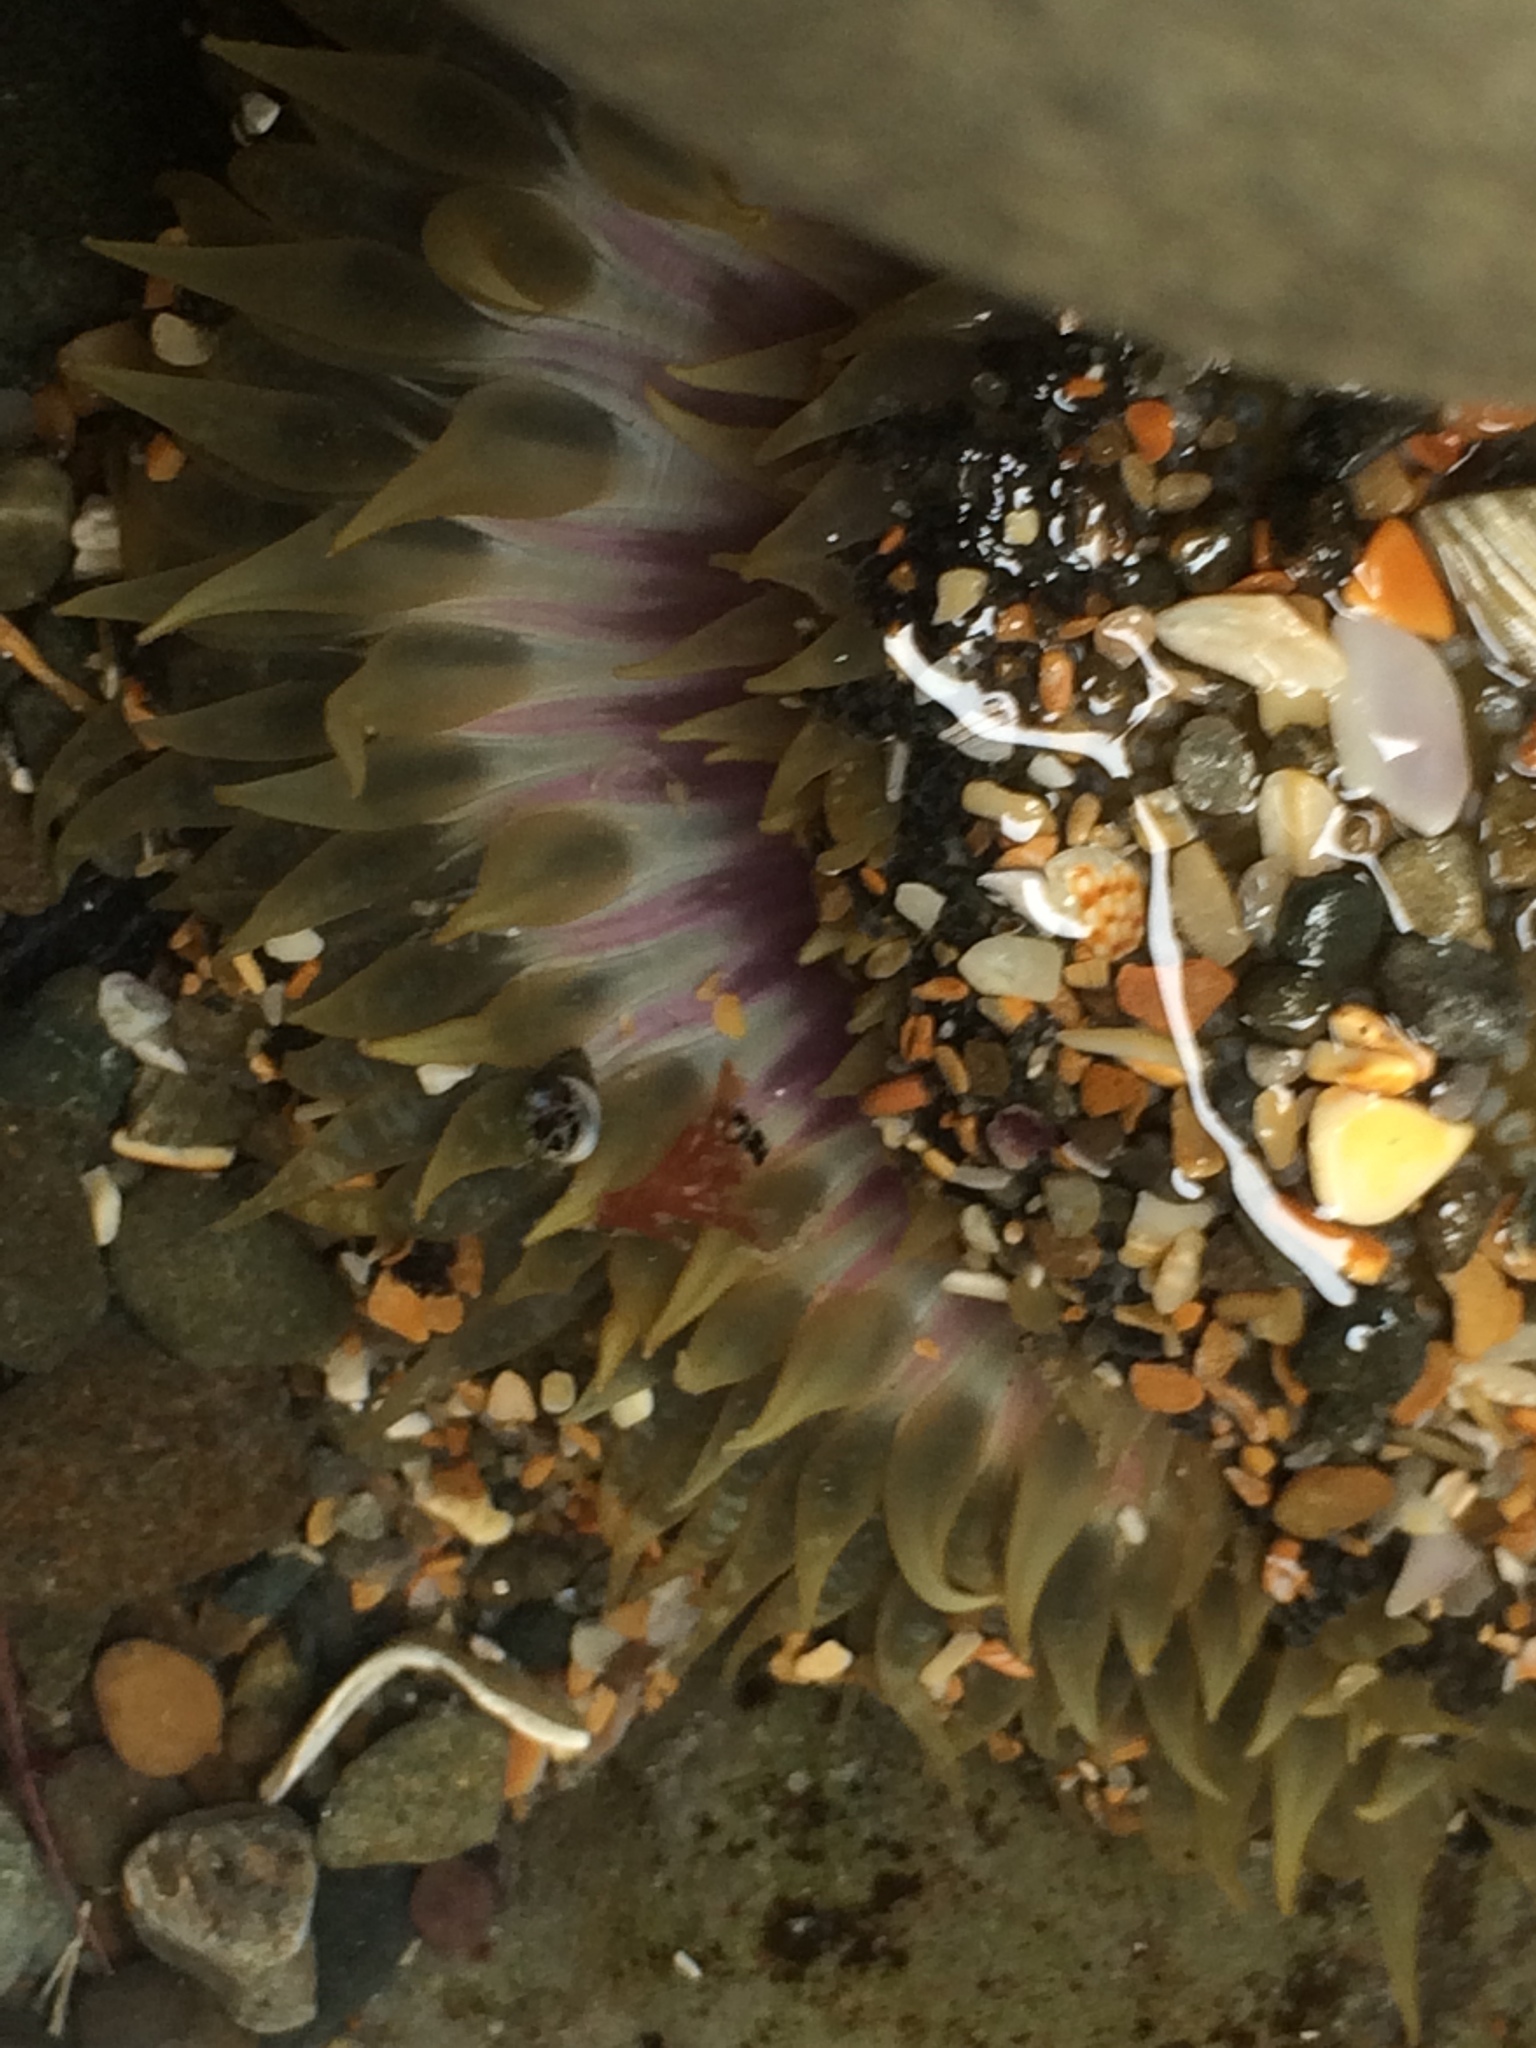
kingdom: Animalia
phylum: Cnidaria
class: Anthozoa
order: Actiniaria
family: Actiniidae
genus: Oulactis
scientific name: Oulactis magna
